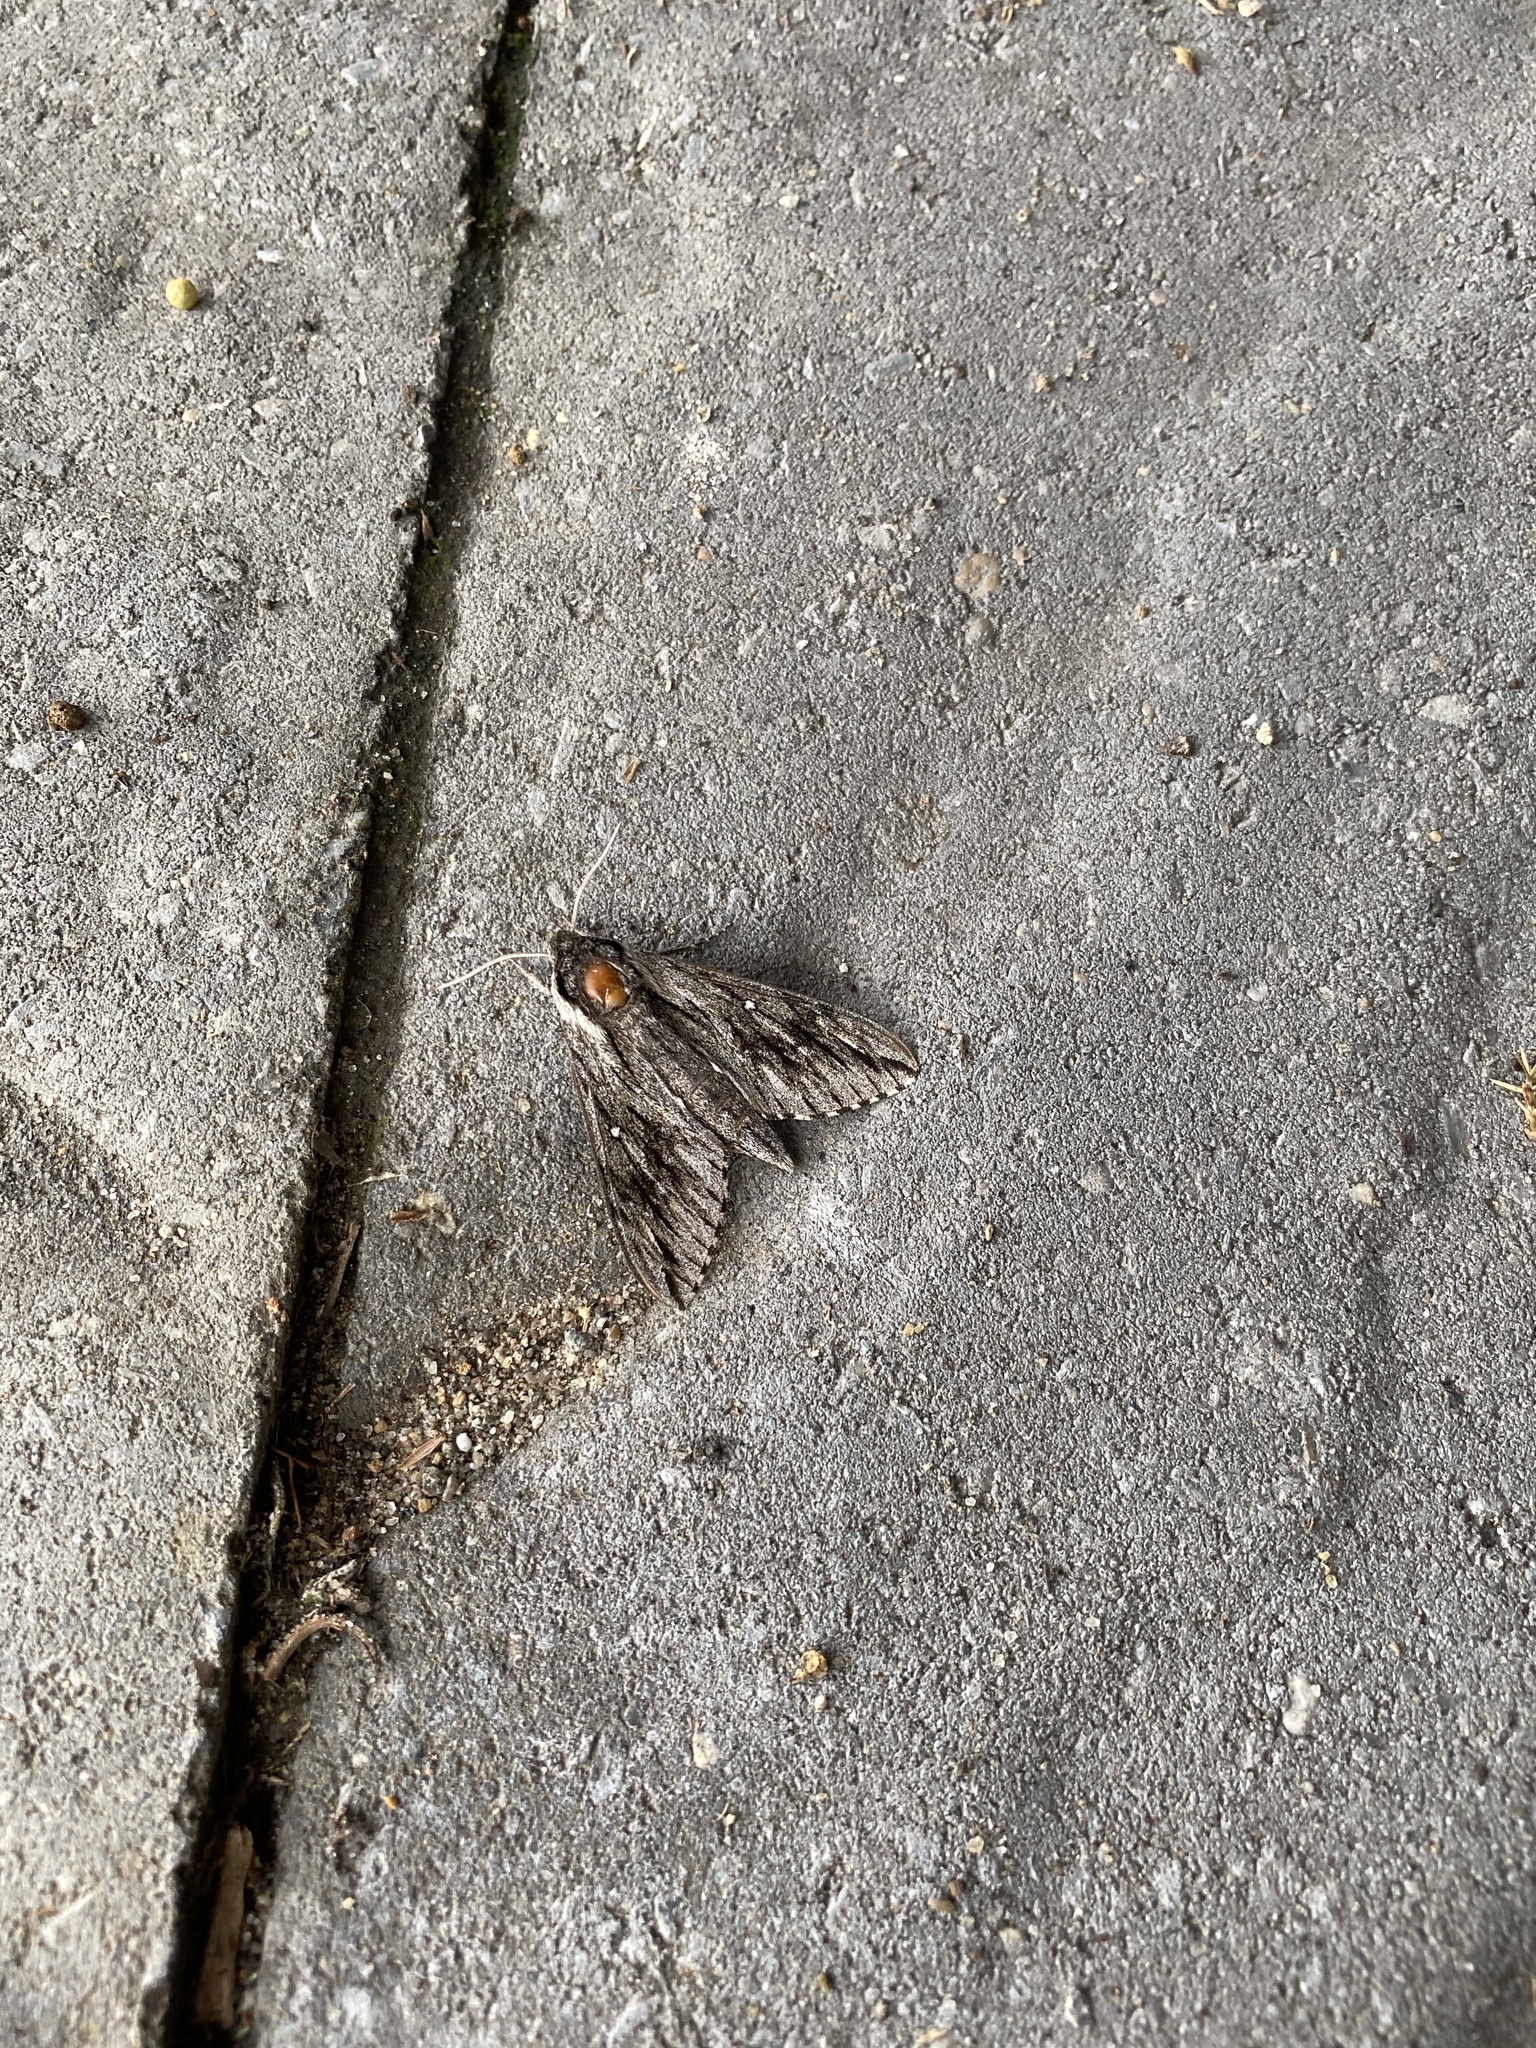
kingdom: Animalia
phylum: Arthropoda
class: Insecta
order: Lepidoptera
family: Sphingidae
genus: Paratrea
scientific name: Paratrea plebeja
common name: Plebian sphinx
